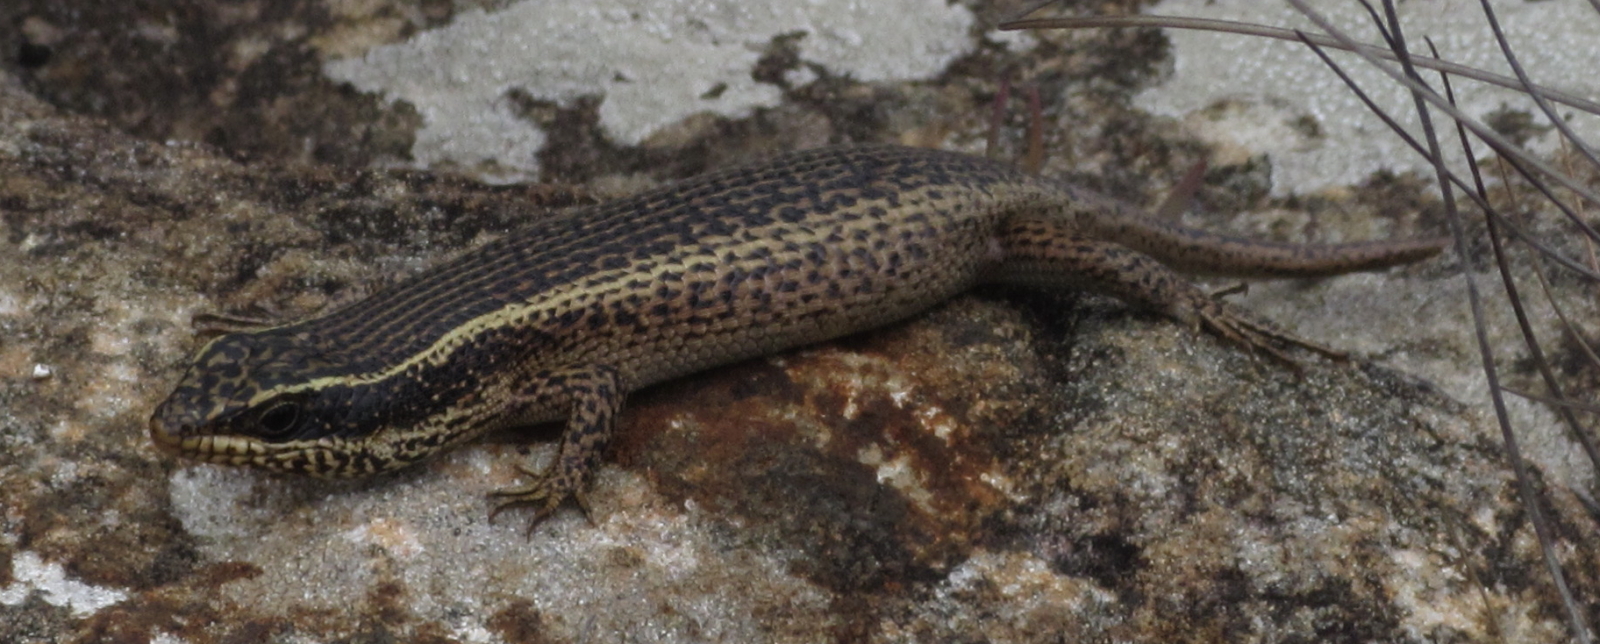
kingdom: Animalia
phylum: Chordata
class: Squamata
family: Scincidae
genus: Trachylepis
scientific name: Trachylepis punctatissima
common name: Montane speckled skink
